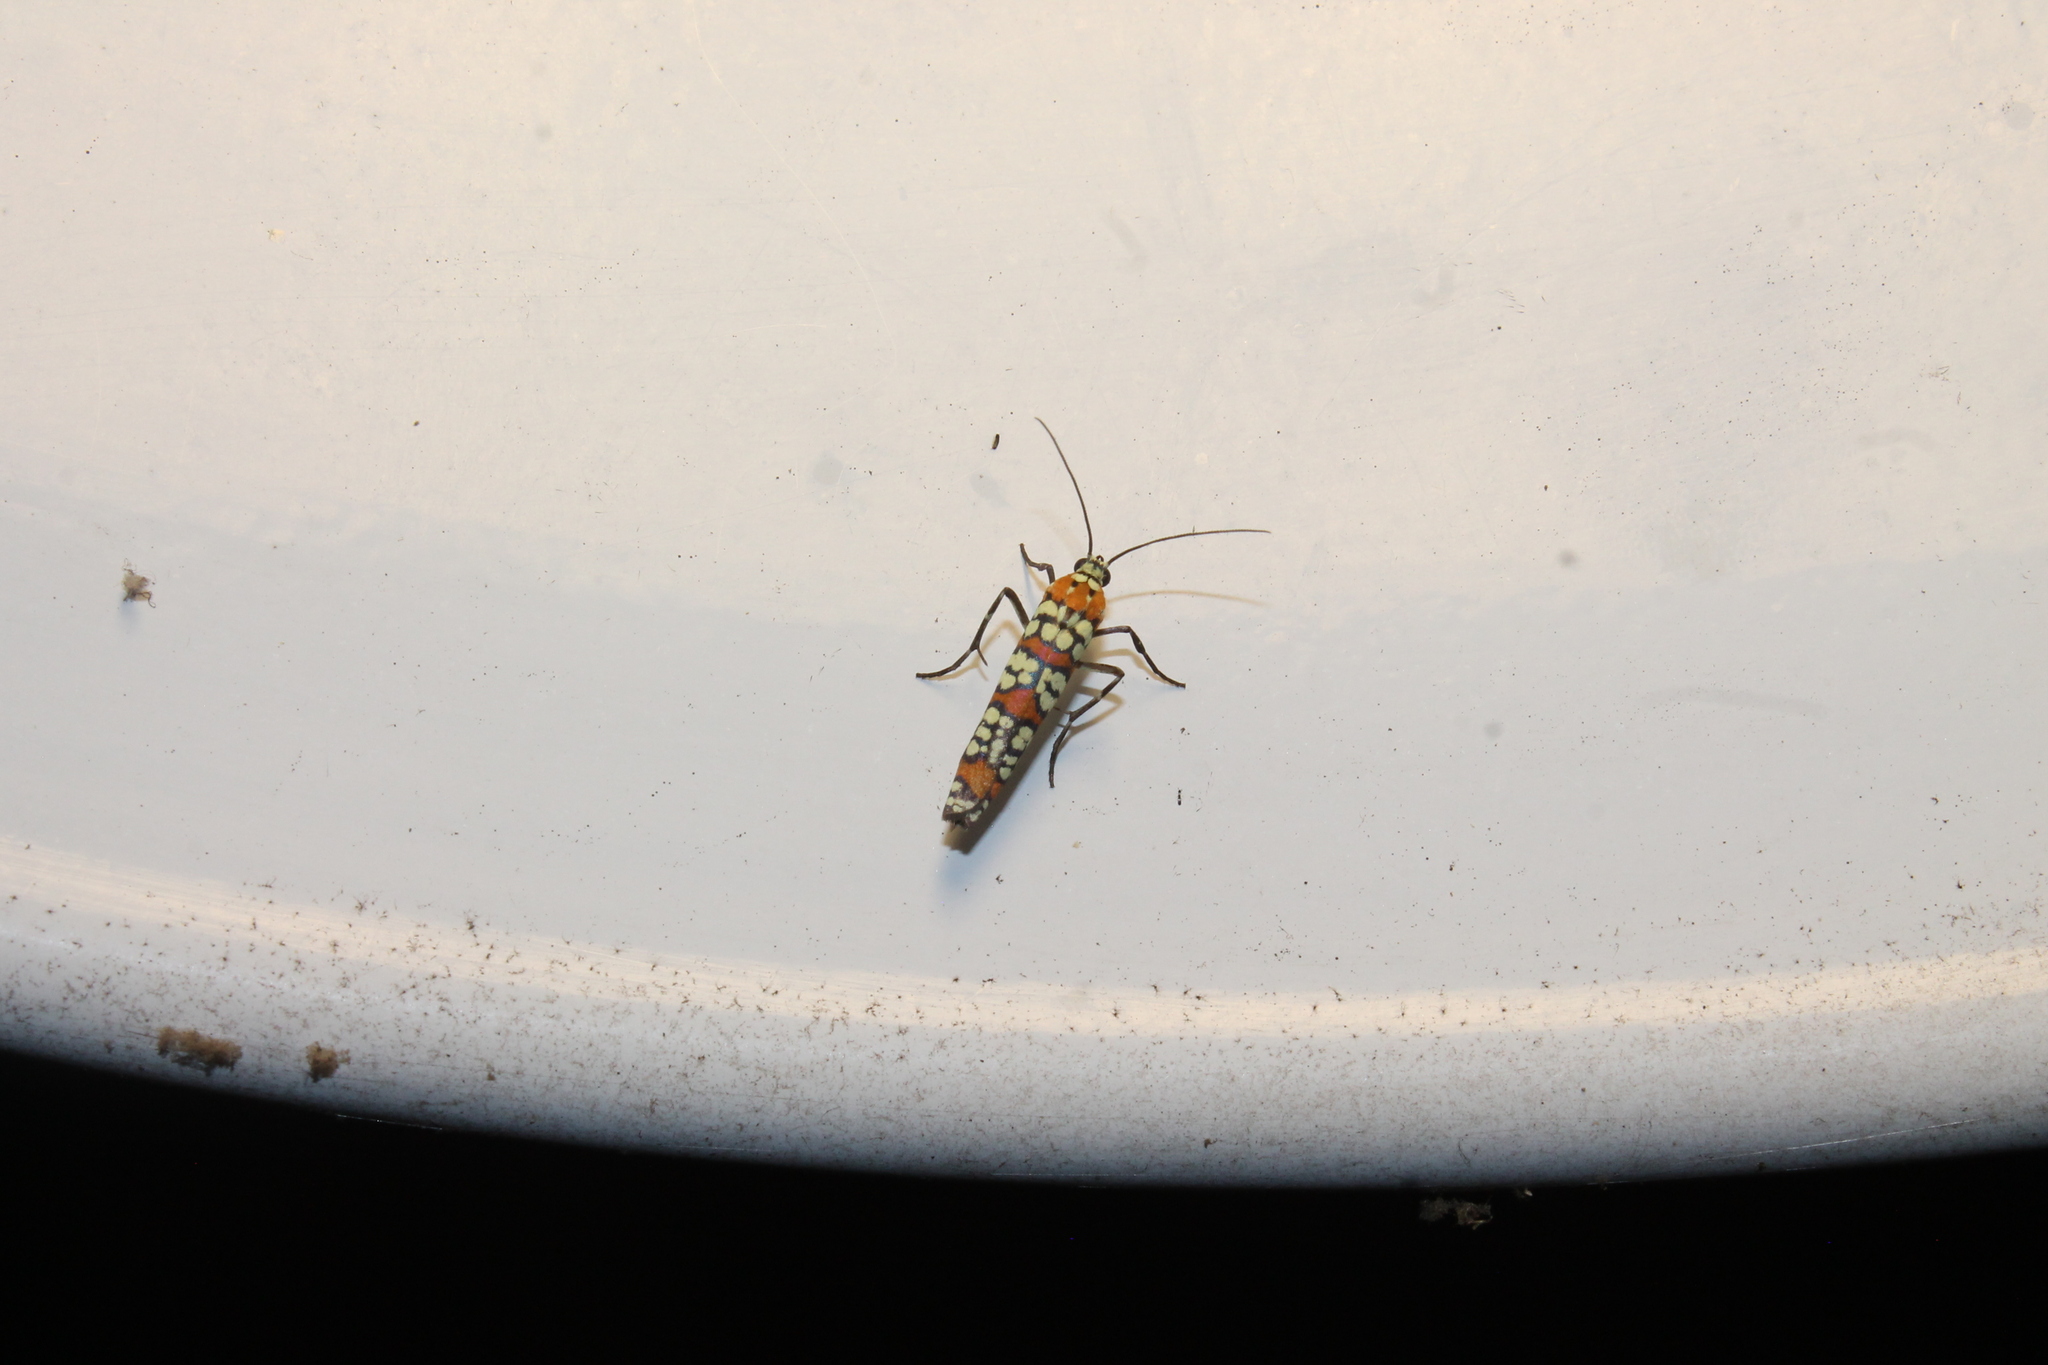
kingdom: Animalia
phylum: Arthropoda
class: Insecta
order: Lepidoptera
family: Attevidae
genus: Atteva
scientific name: Atteva punctella
